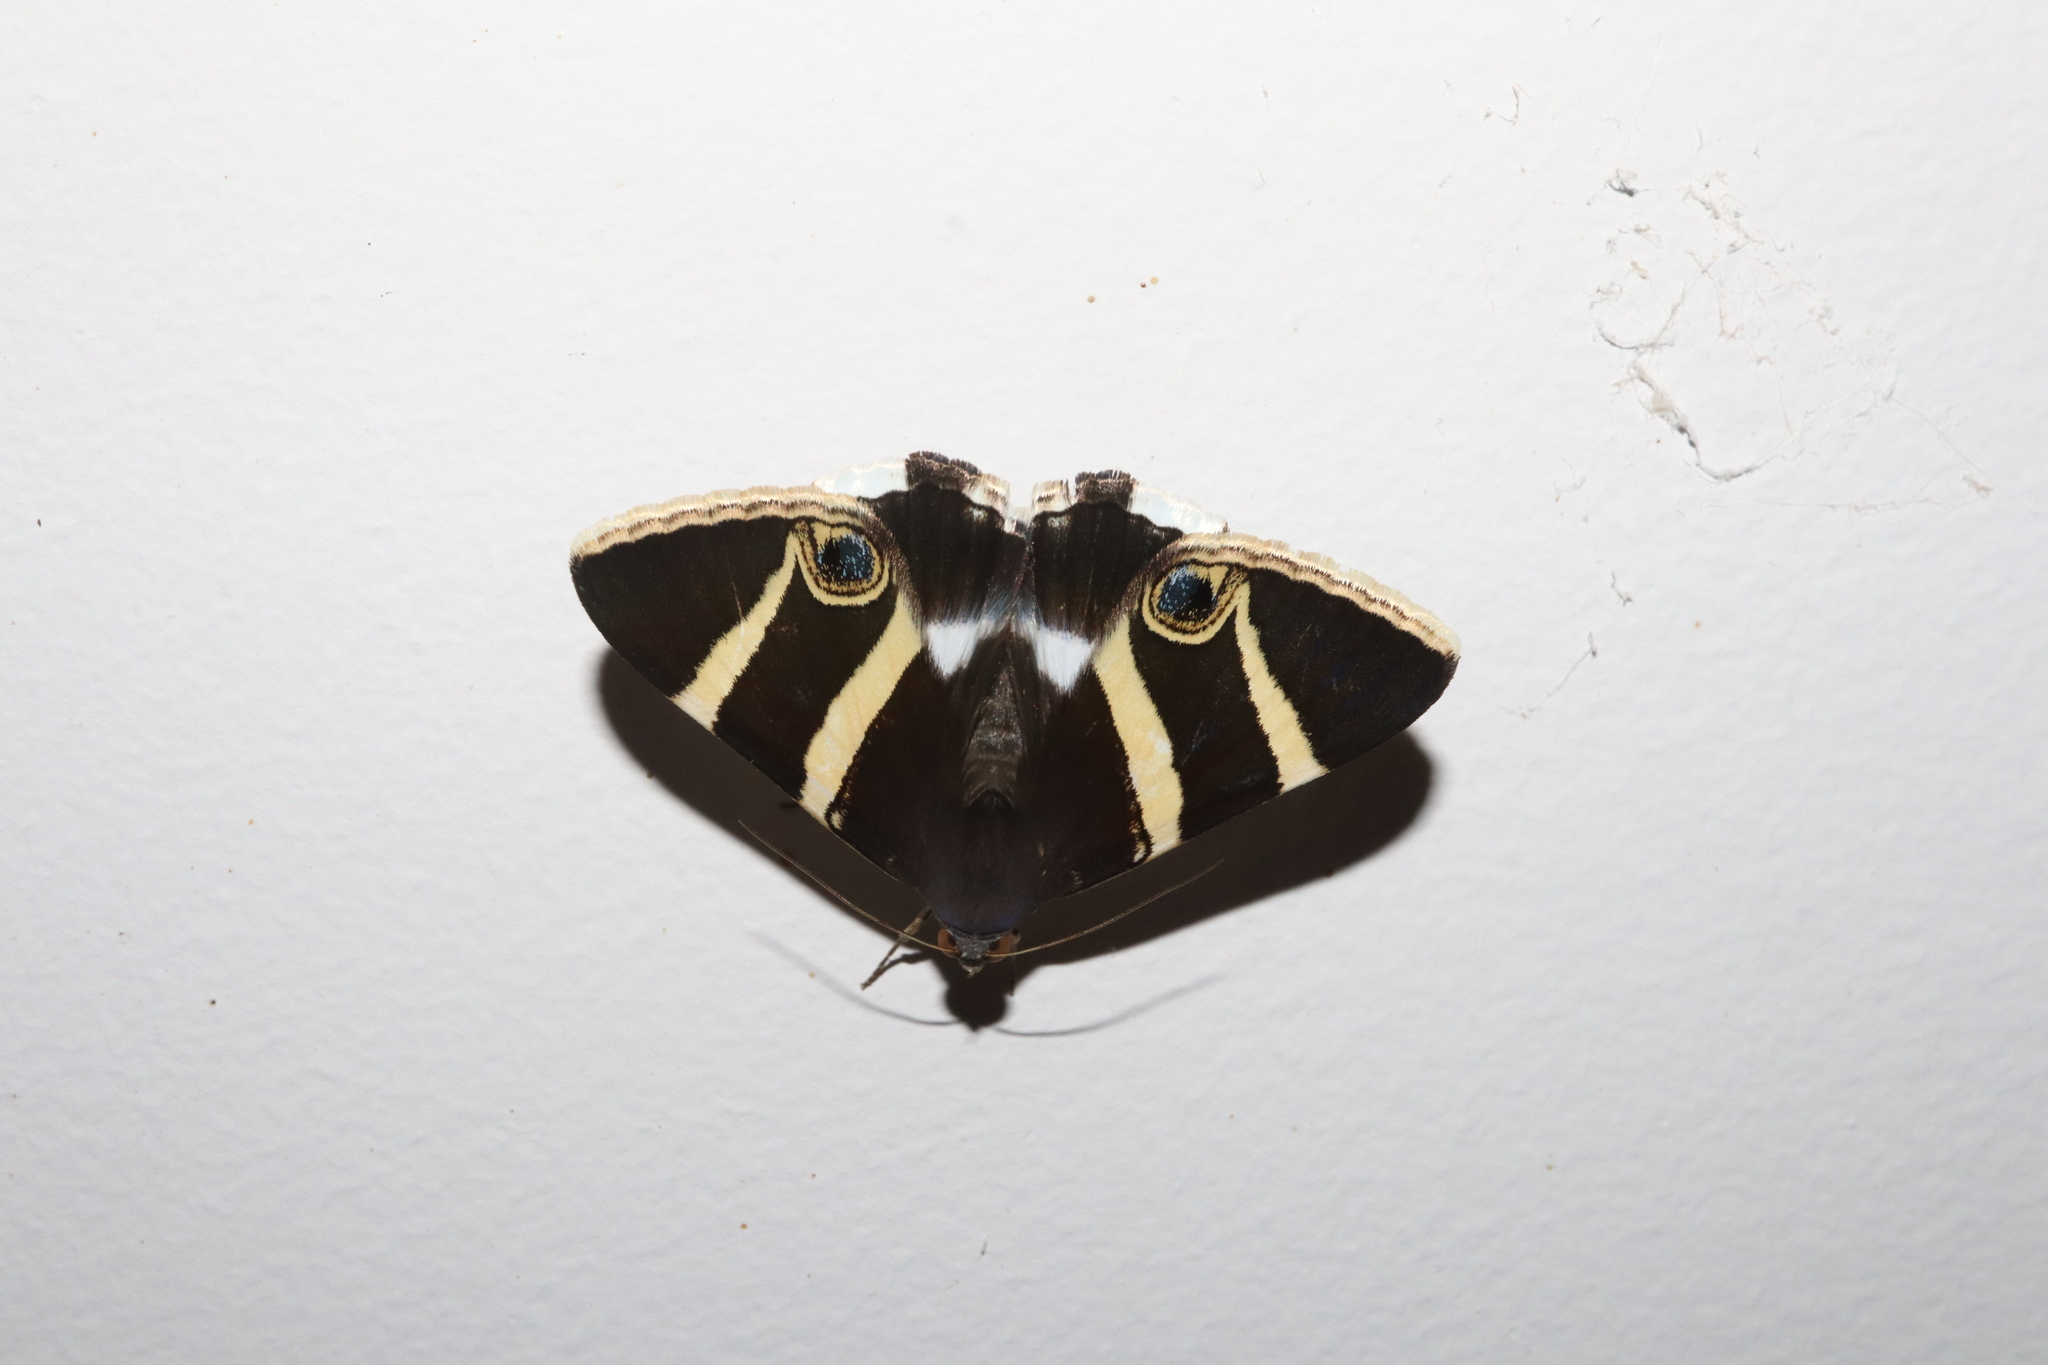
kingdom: Animalia
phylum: Arthropoda
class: Insecta
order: Lepidoptera
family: Erebidae
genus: Grammodes
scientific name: Grammodes ocellata
